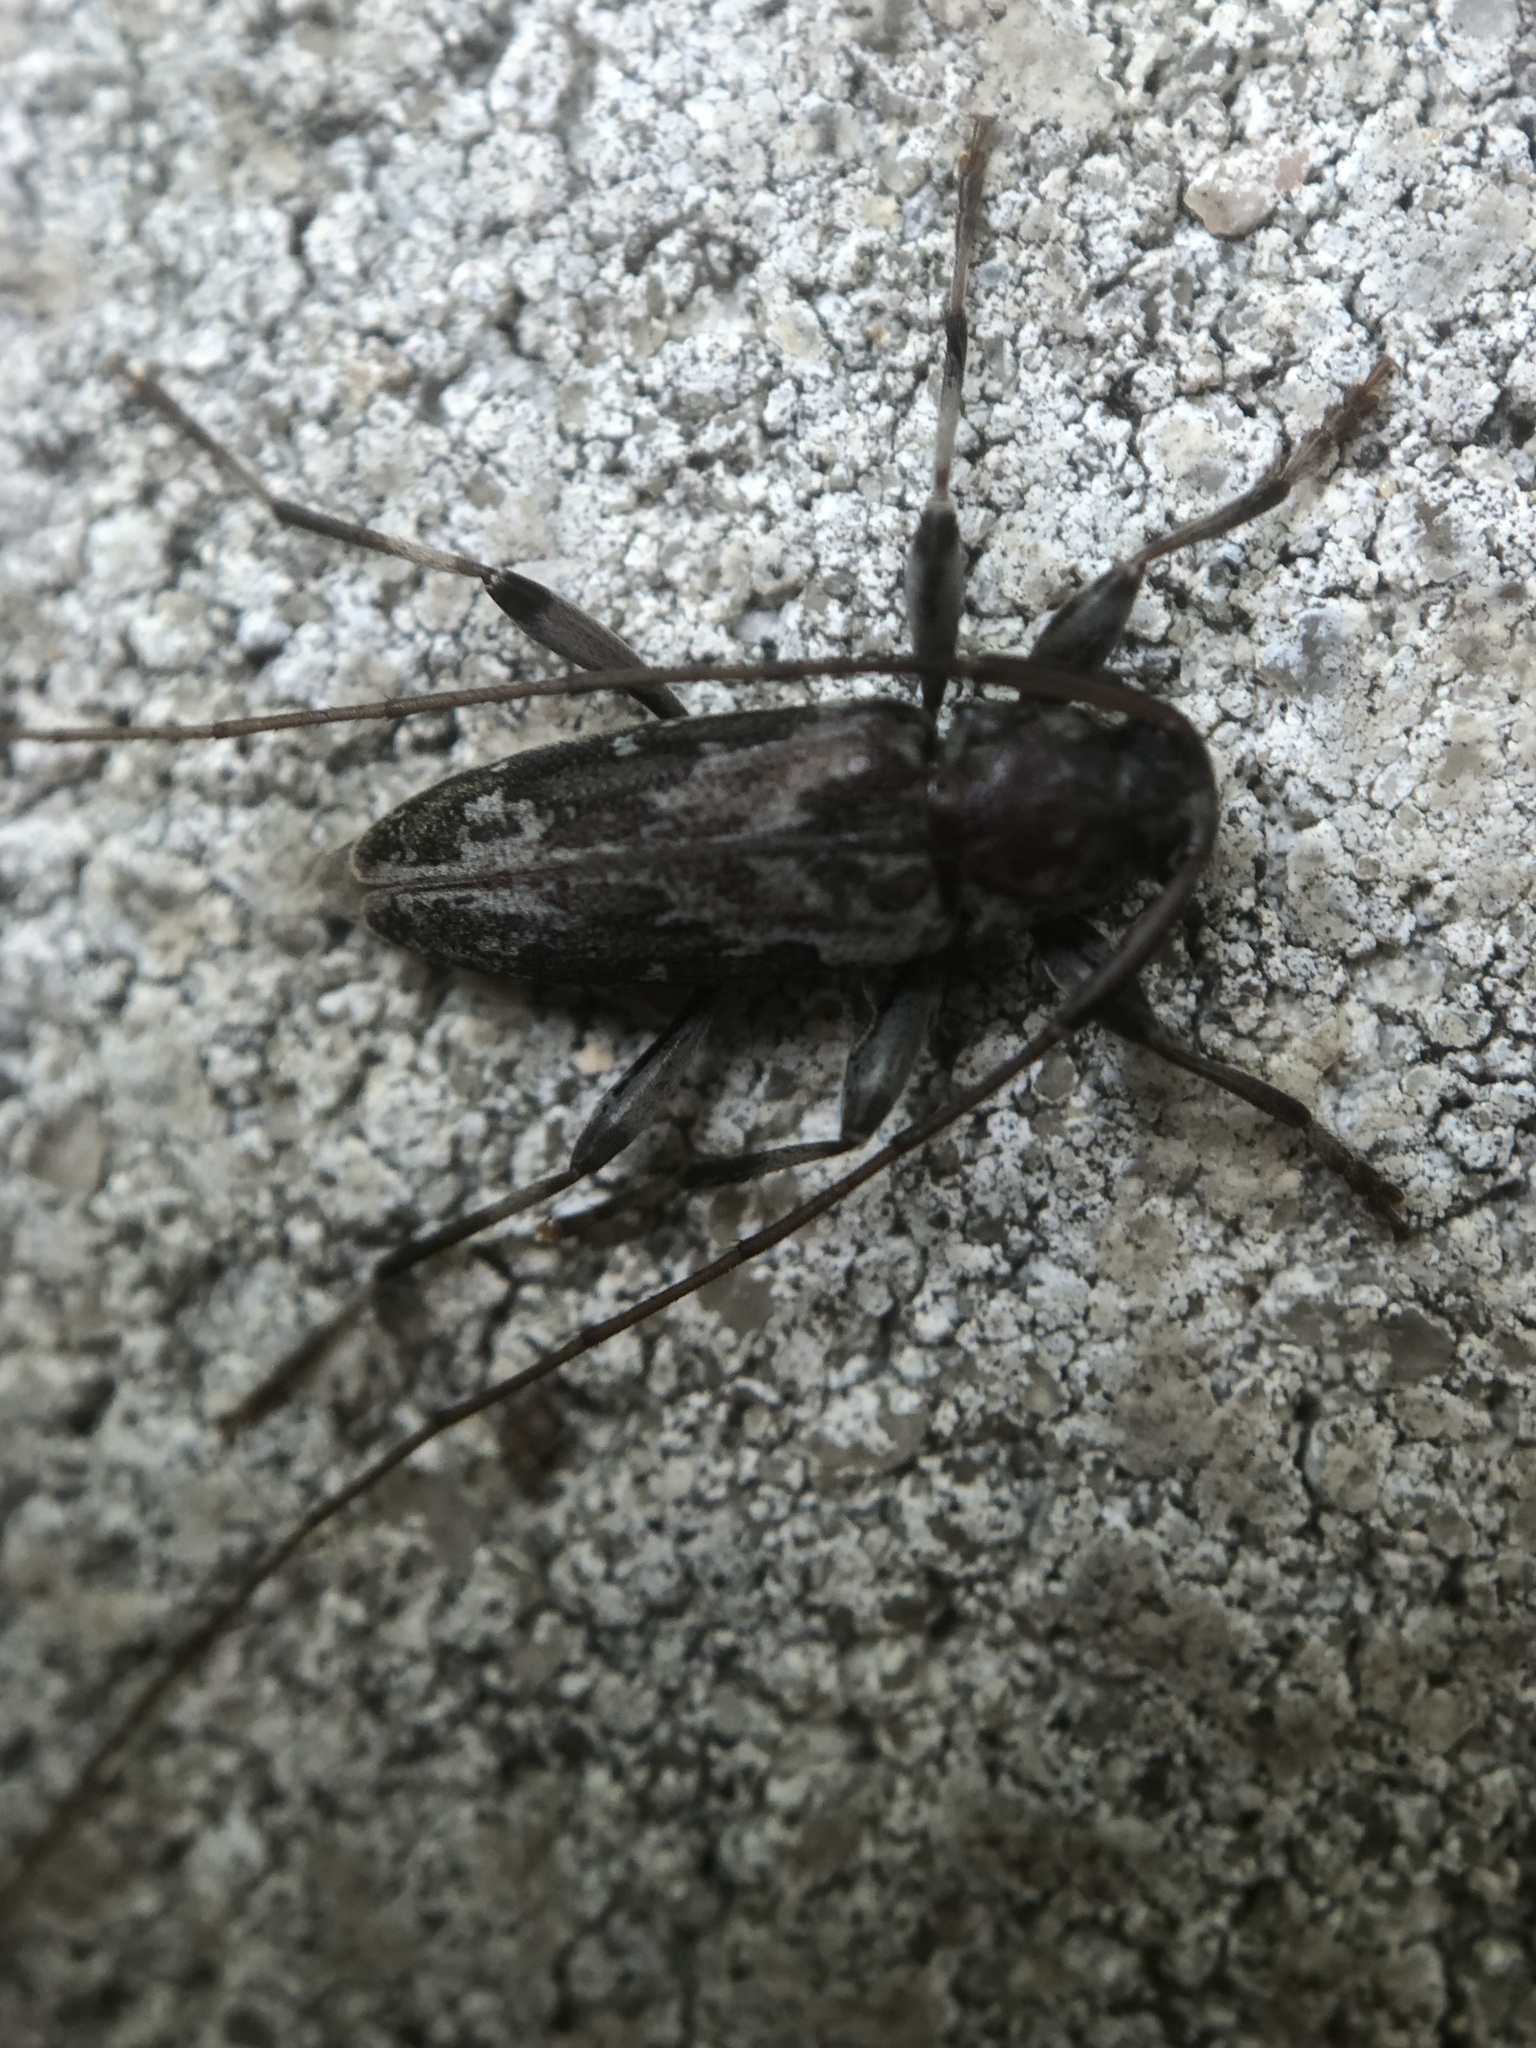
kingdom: Animalia
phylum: Arthropoda
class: Insecta
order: Coleoptera
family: Cerambycidae
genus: Lepturges
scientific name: Lepturges confluens
